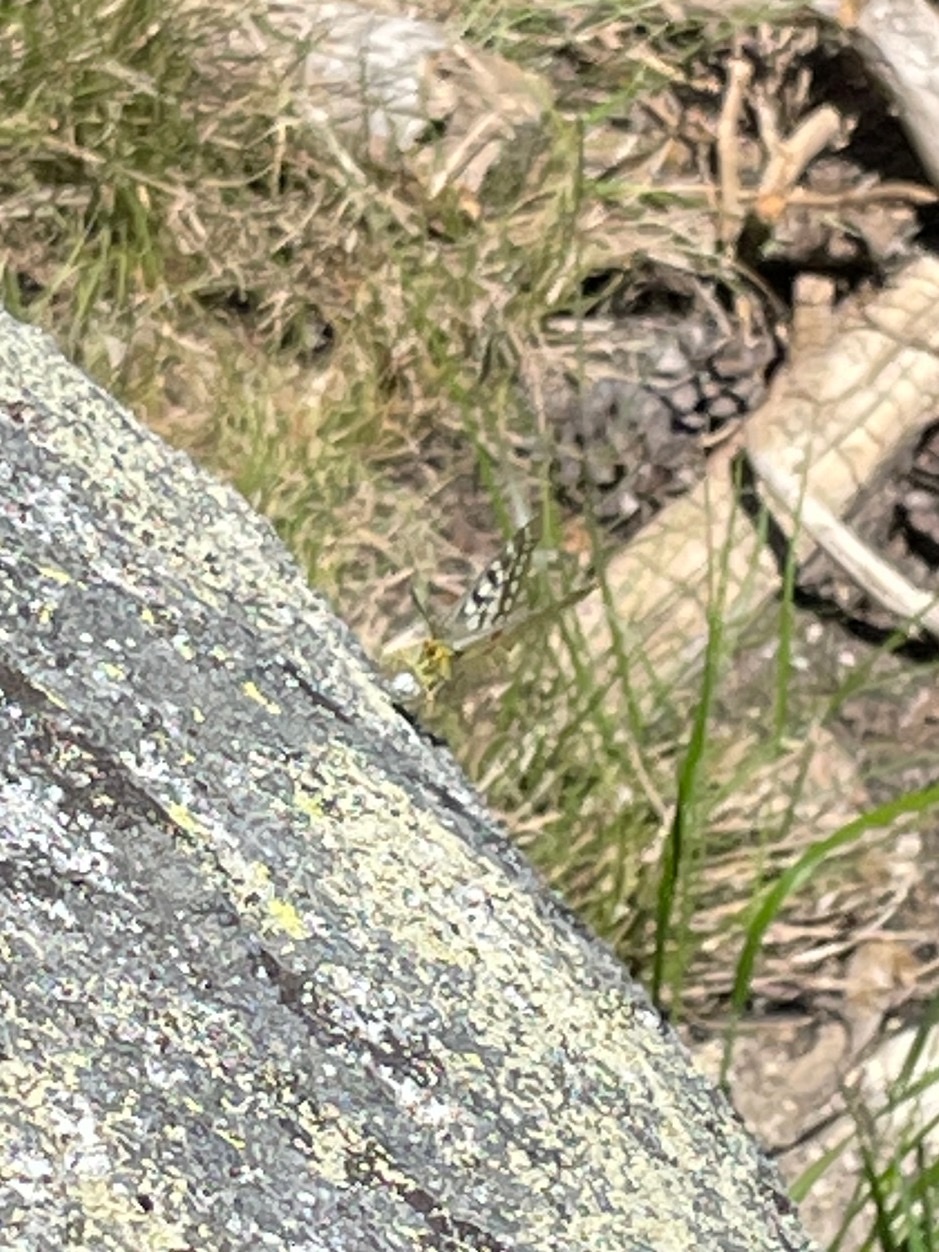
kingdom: Animalia
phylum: Arthropoda
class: Insecta
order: Lepidoptera
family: Papilionidae
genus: Parnassius
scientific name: Parnassius clodius
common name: American apollo
